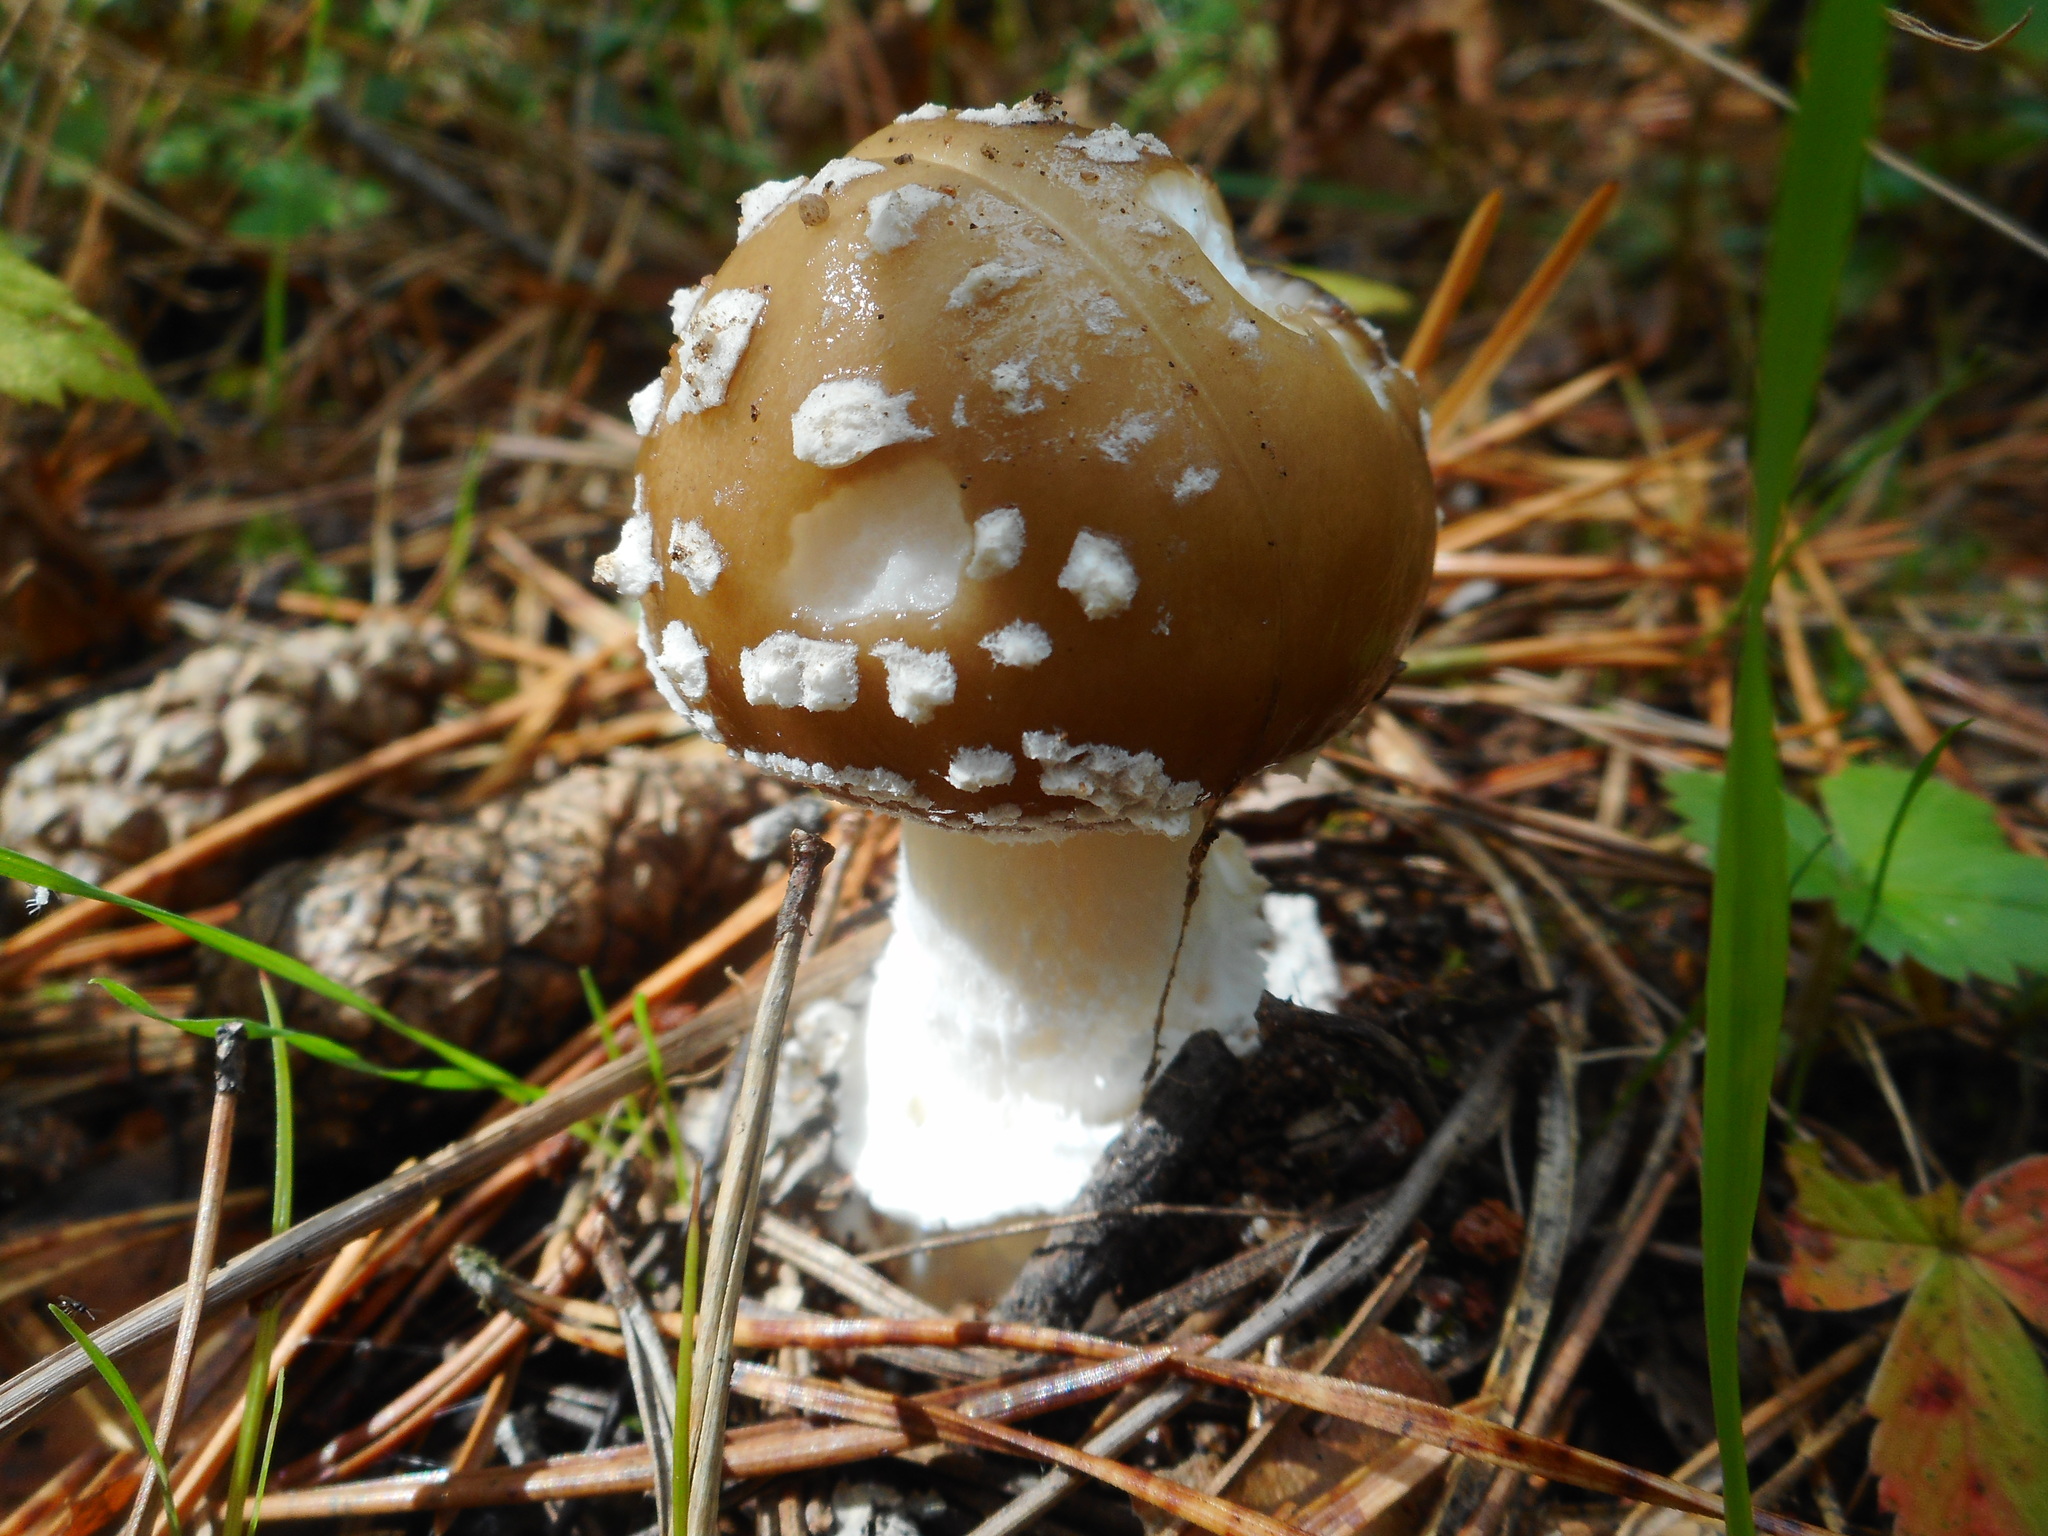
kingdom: Fungi
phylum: Basidiomycota
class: Agaricomycetes
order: Agaricales
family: Amanitaceae
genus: Amanita
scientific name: Amanita pantherina
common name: Panthercap
